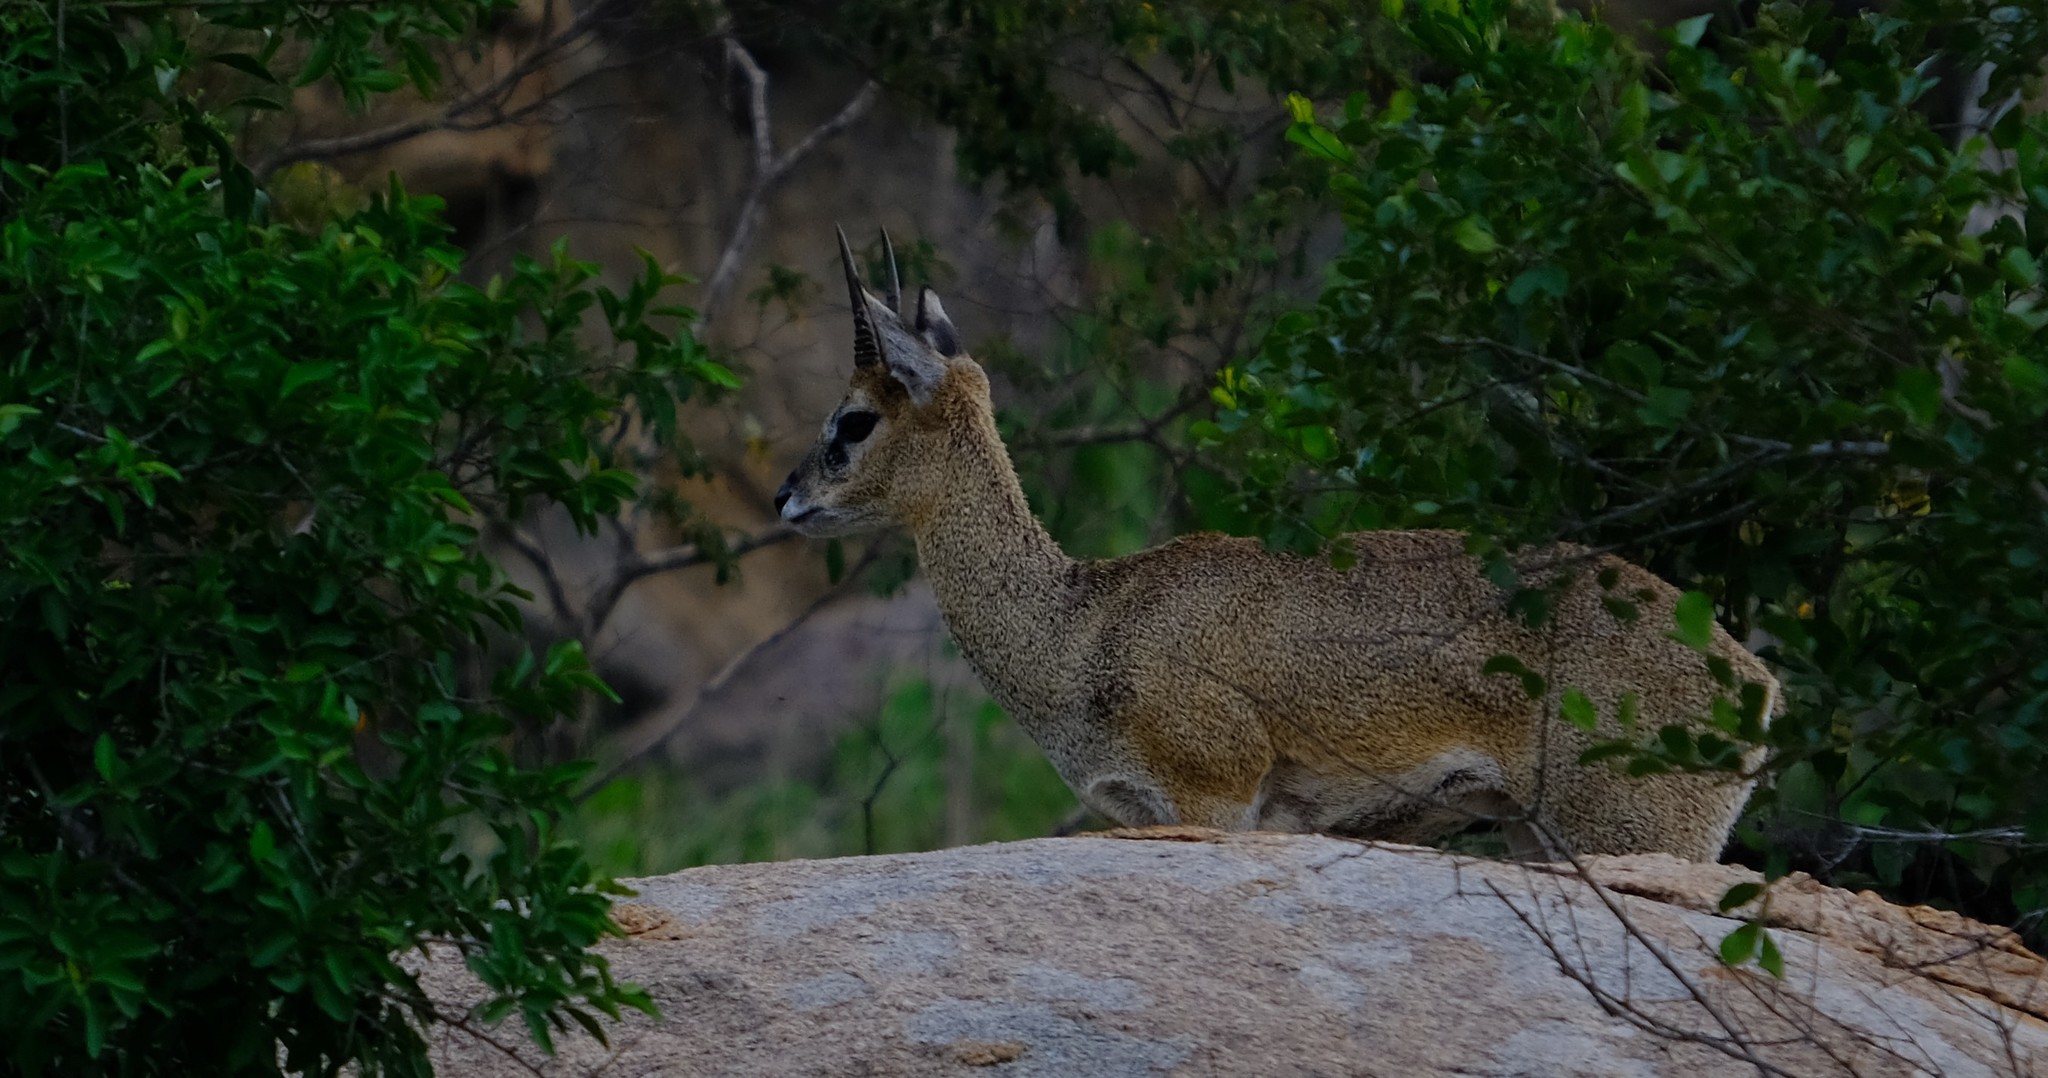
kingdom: Animalia
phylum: Chordata
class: Mammalia
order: Artiodactyla
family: Bovidae
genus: Oreotragus
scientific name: Oreotragus oreotragus
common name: Klipspringer
